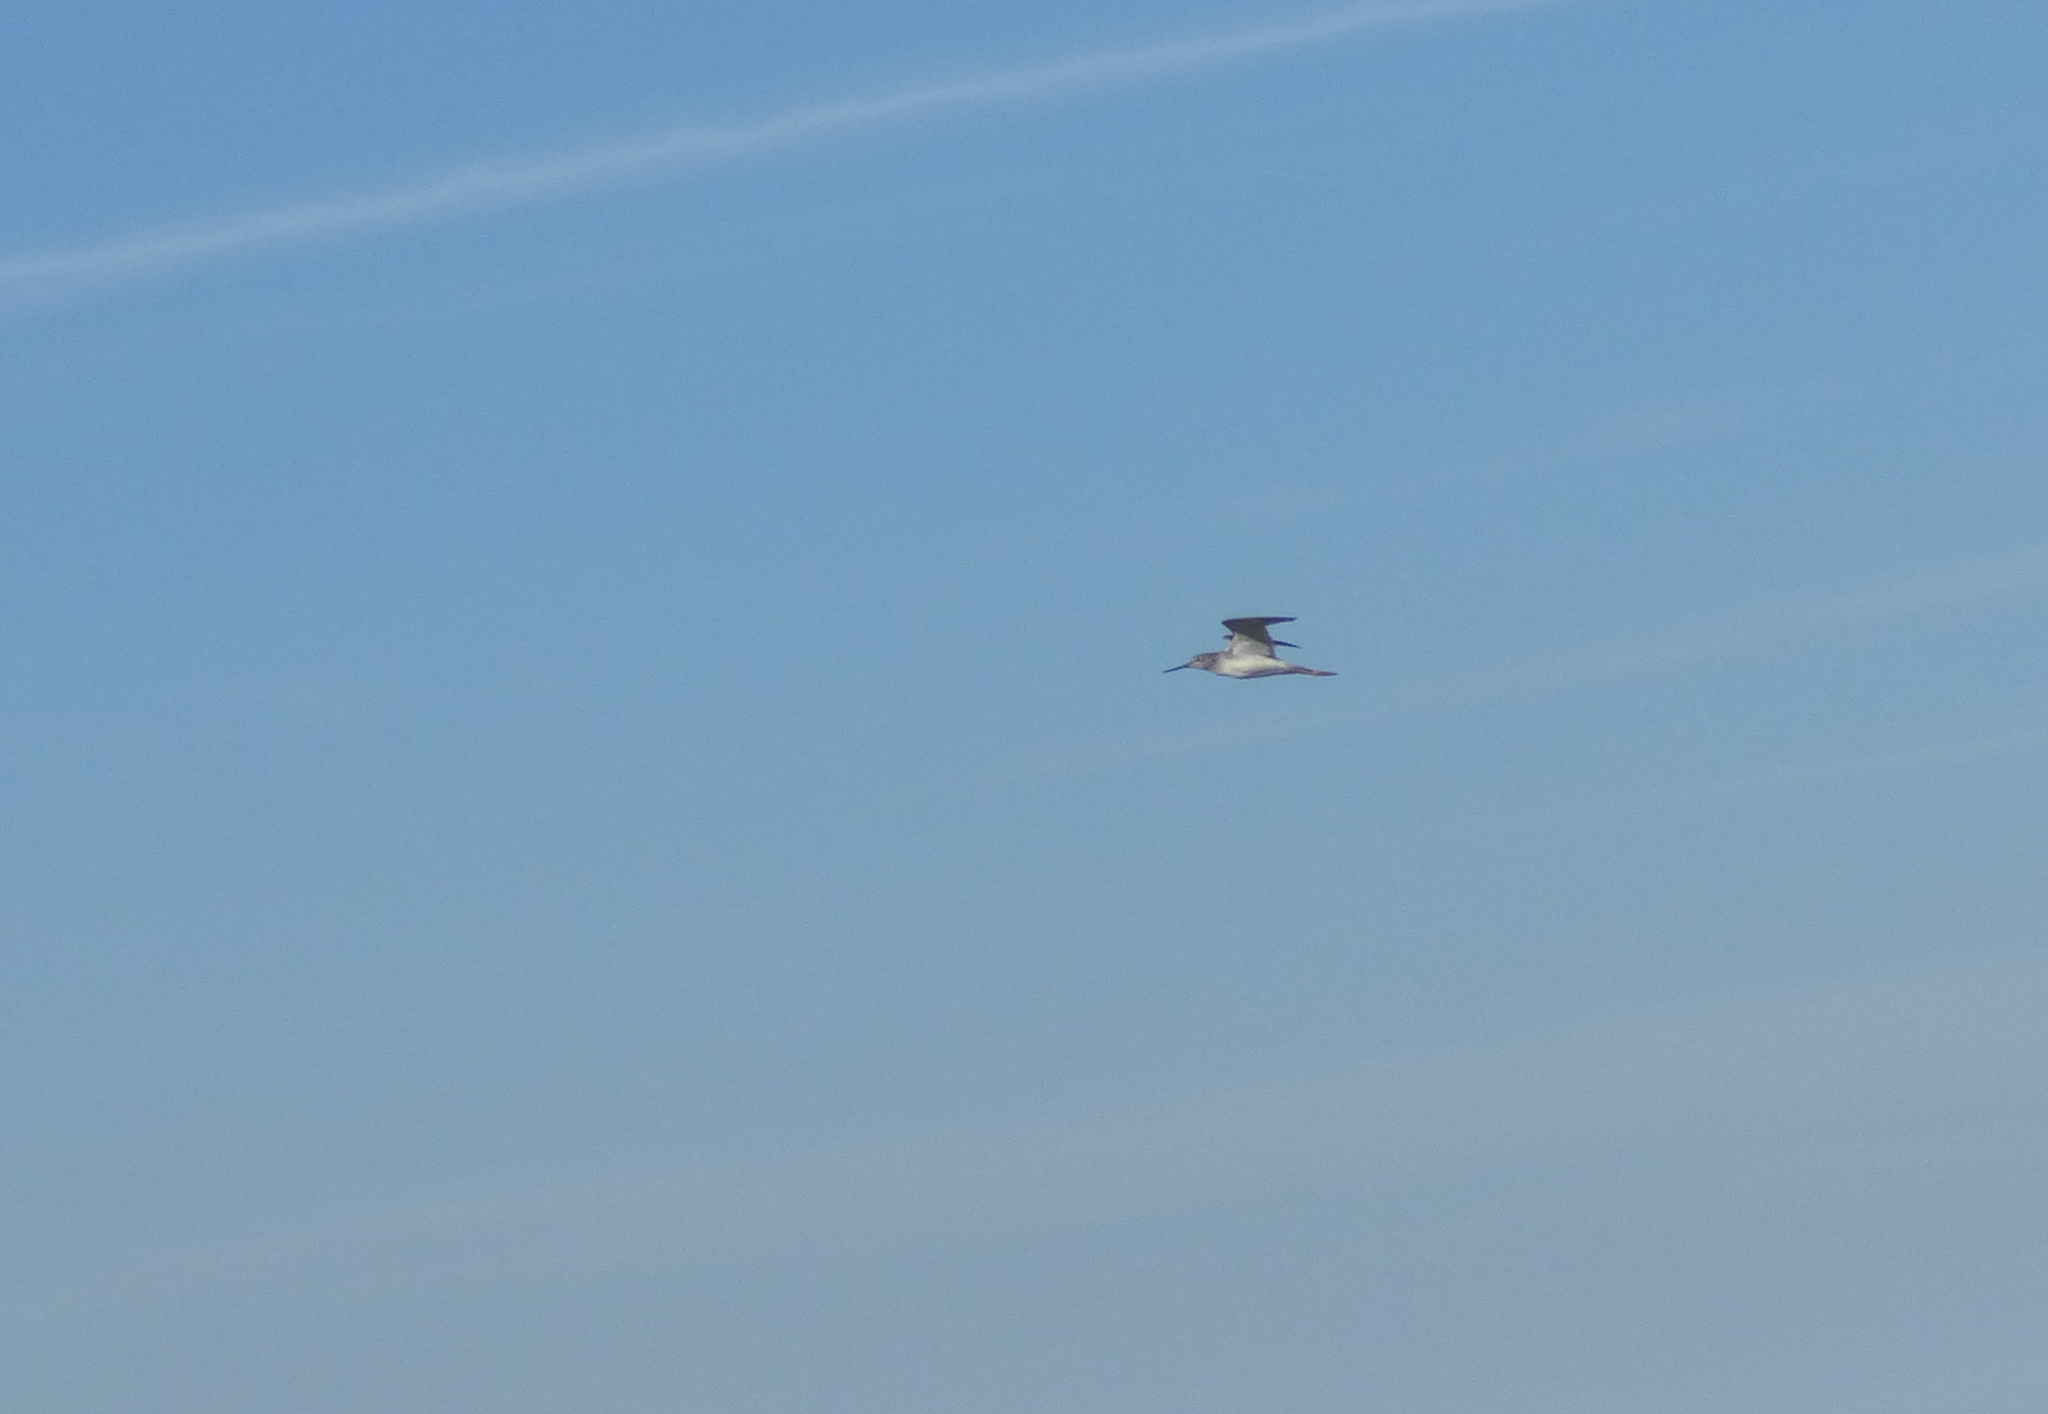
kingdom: Animalia
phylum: Chordata
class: Aves
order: Charadriiformes
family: Scolopacidae
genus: Tringa
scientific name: Tringa melanoleuca
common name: Greater yellowlegs
